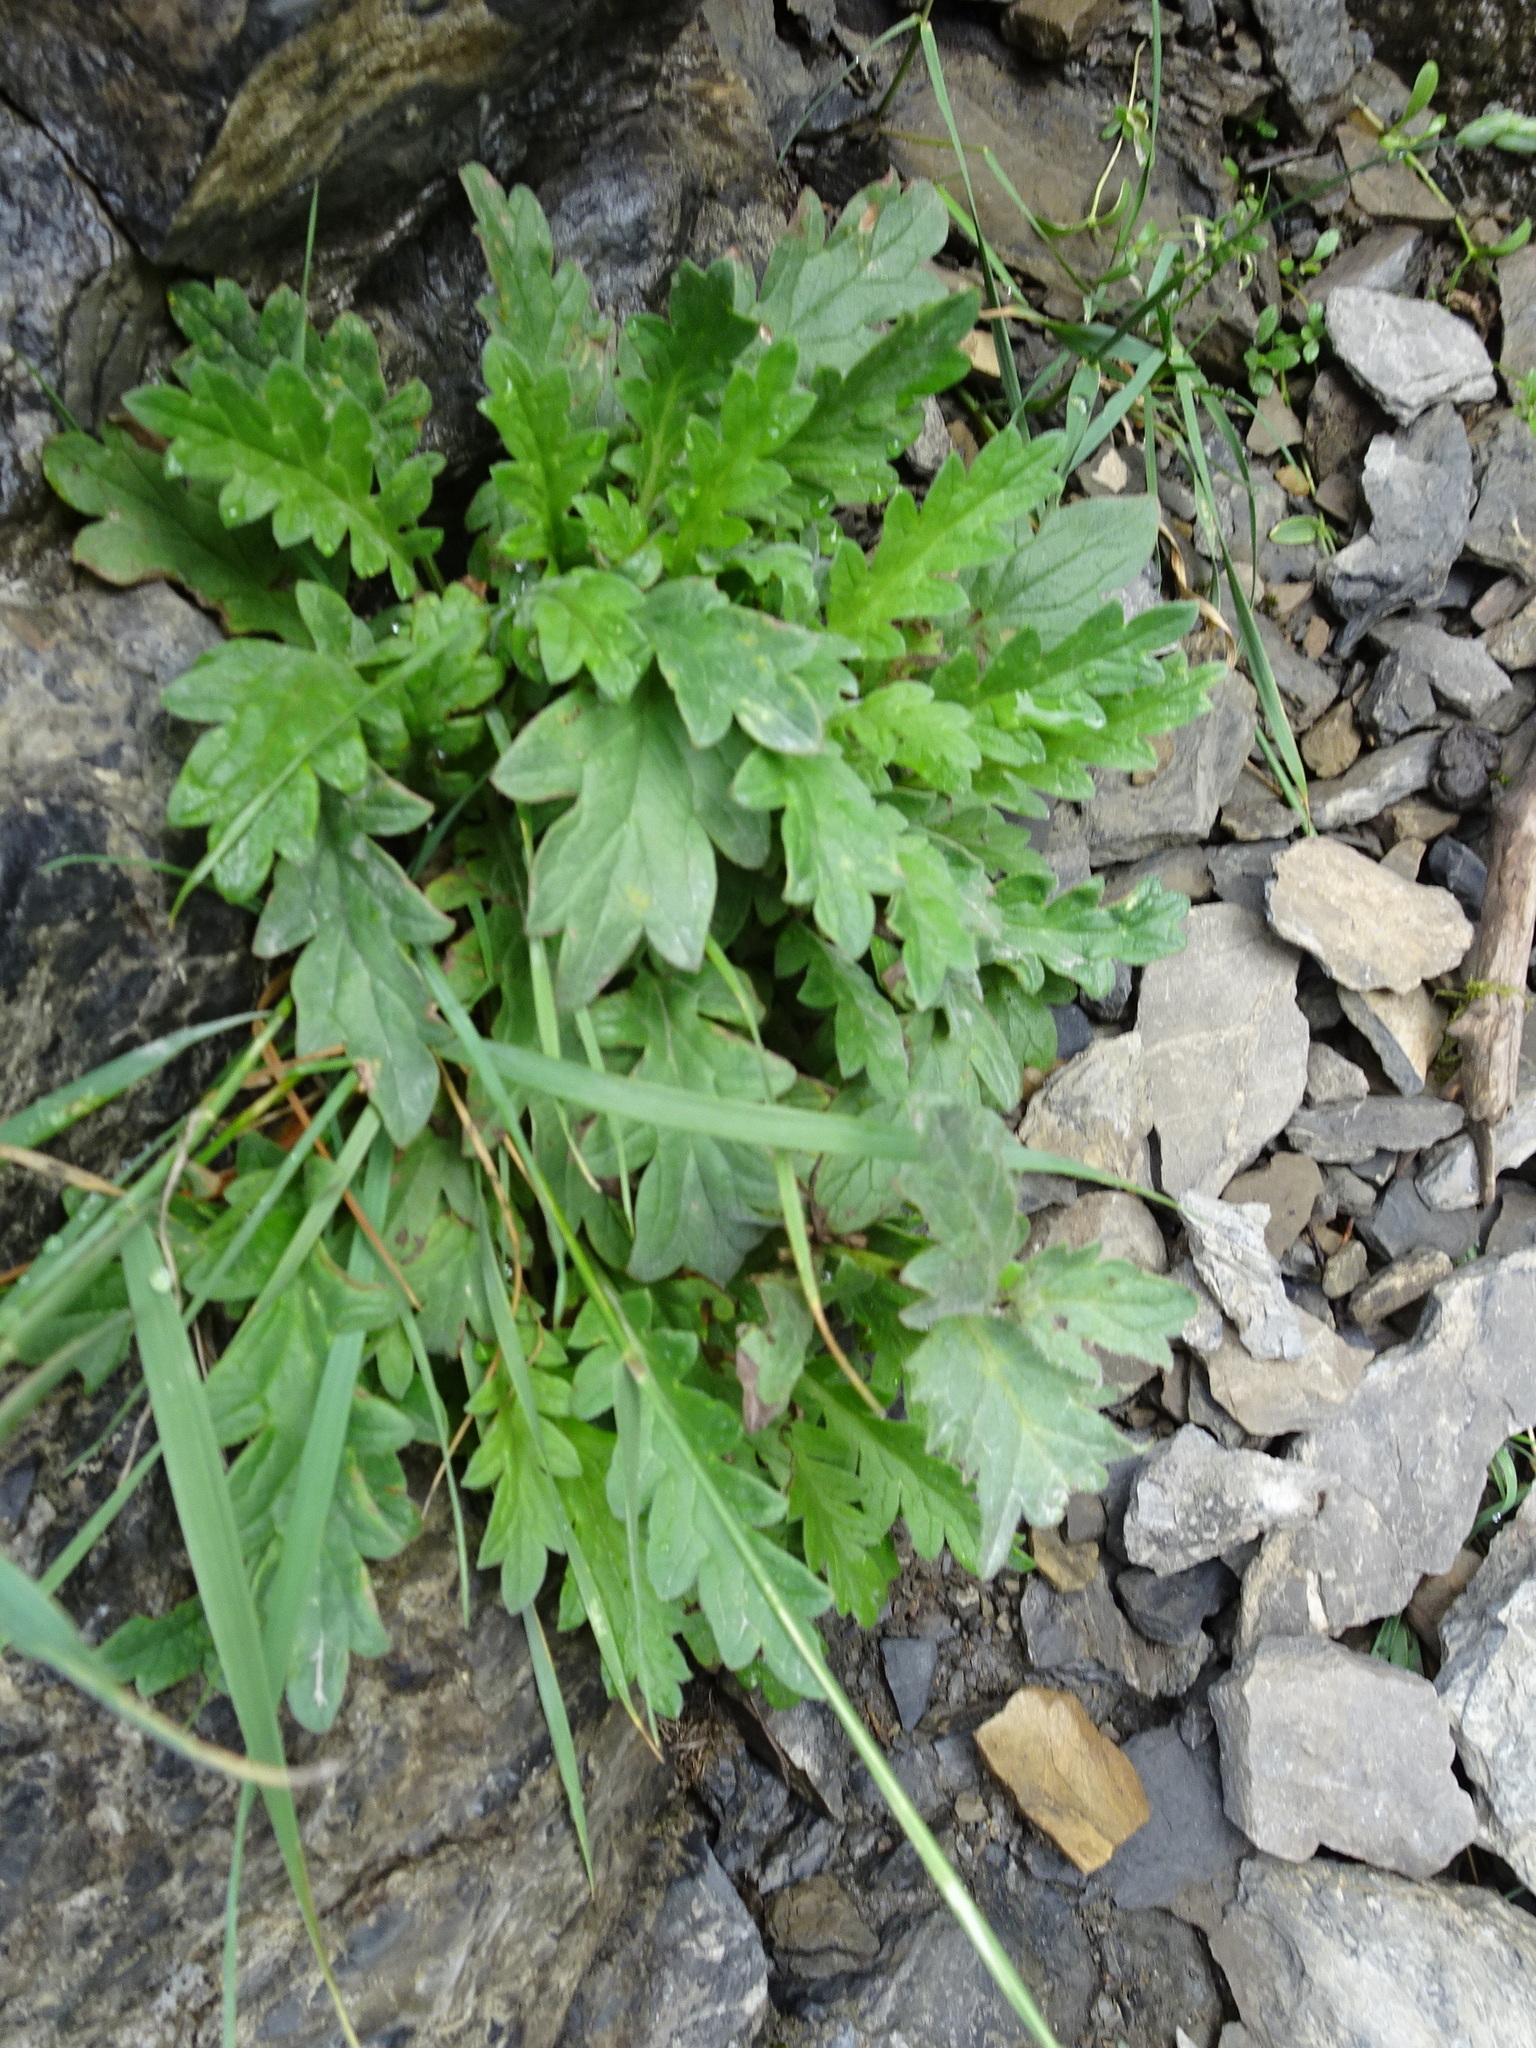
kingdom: Plantae
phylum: Tracheophyta
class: Magnoliopsida
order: Boraginales
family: Hydrophyllaceae
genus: Phacelia
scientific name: Phacelia lyallii
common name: Lyall's phacelia
